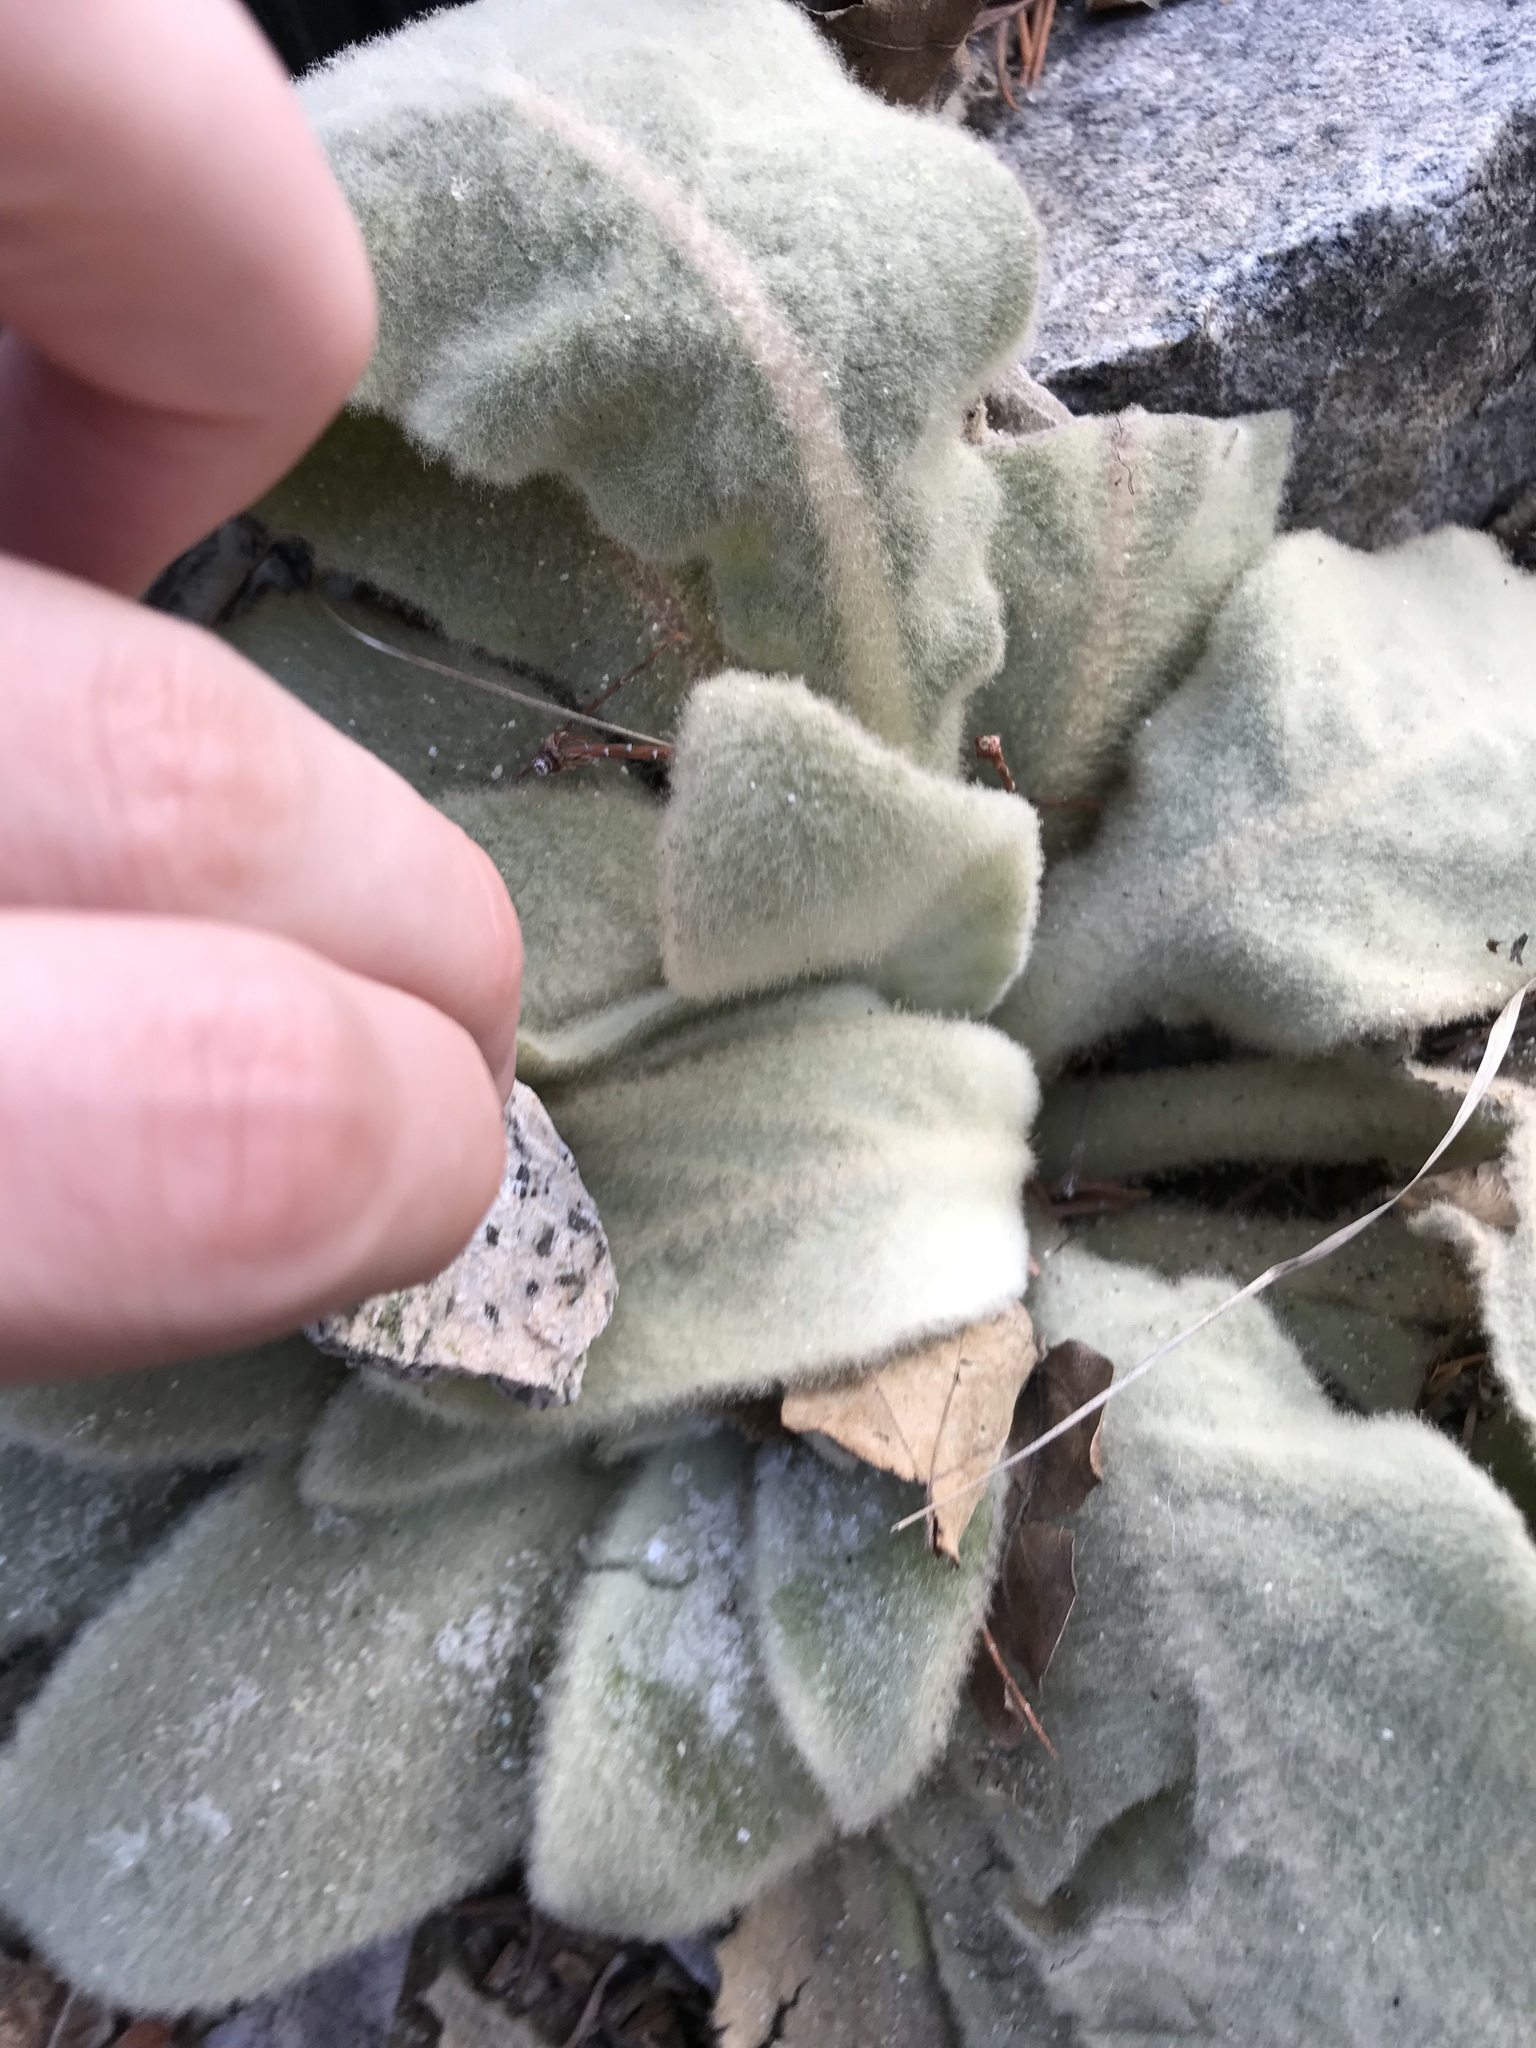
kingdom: Plantae
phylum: Tracheophyta
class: Magnoliopsida
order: Lamiales
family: Scrophulariaceae
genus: Verbascum
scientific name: Verbascum thapsus
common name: Common mullein
